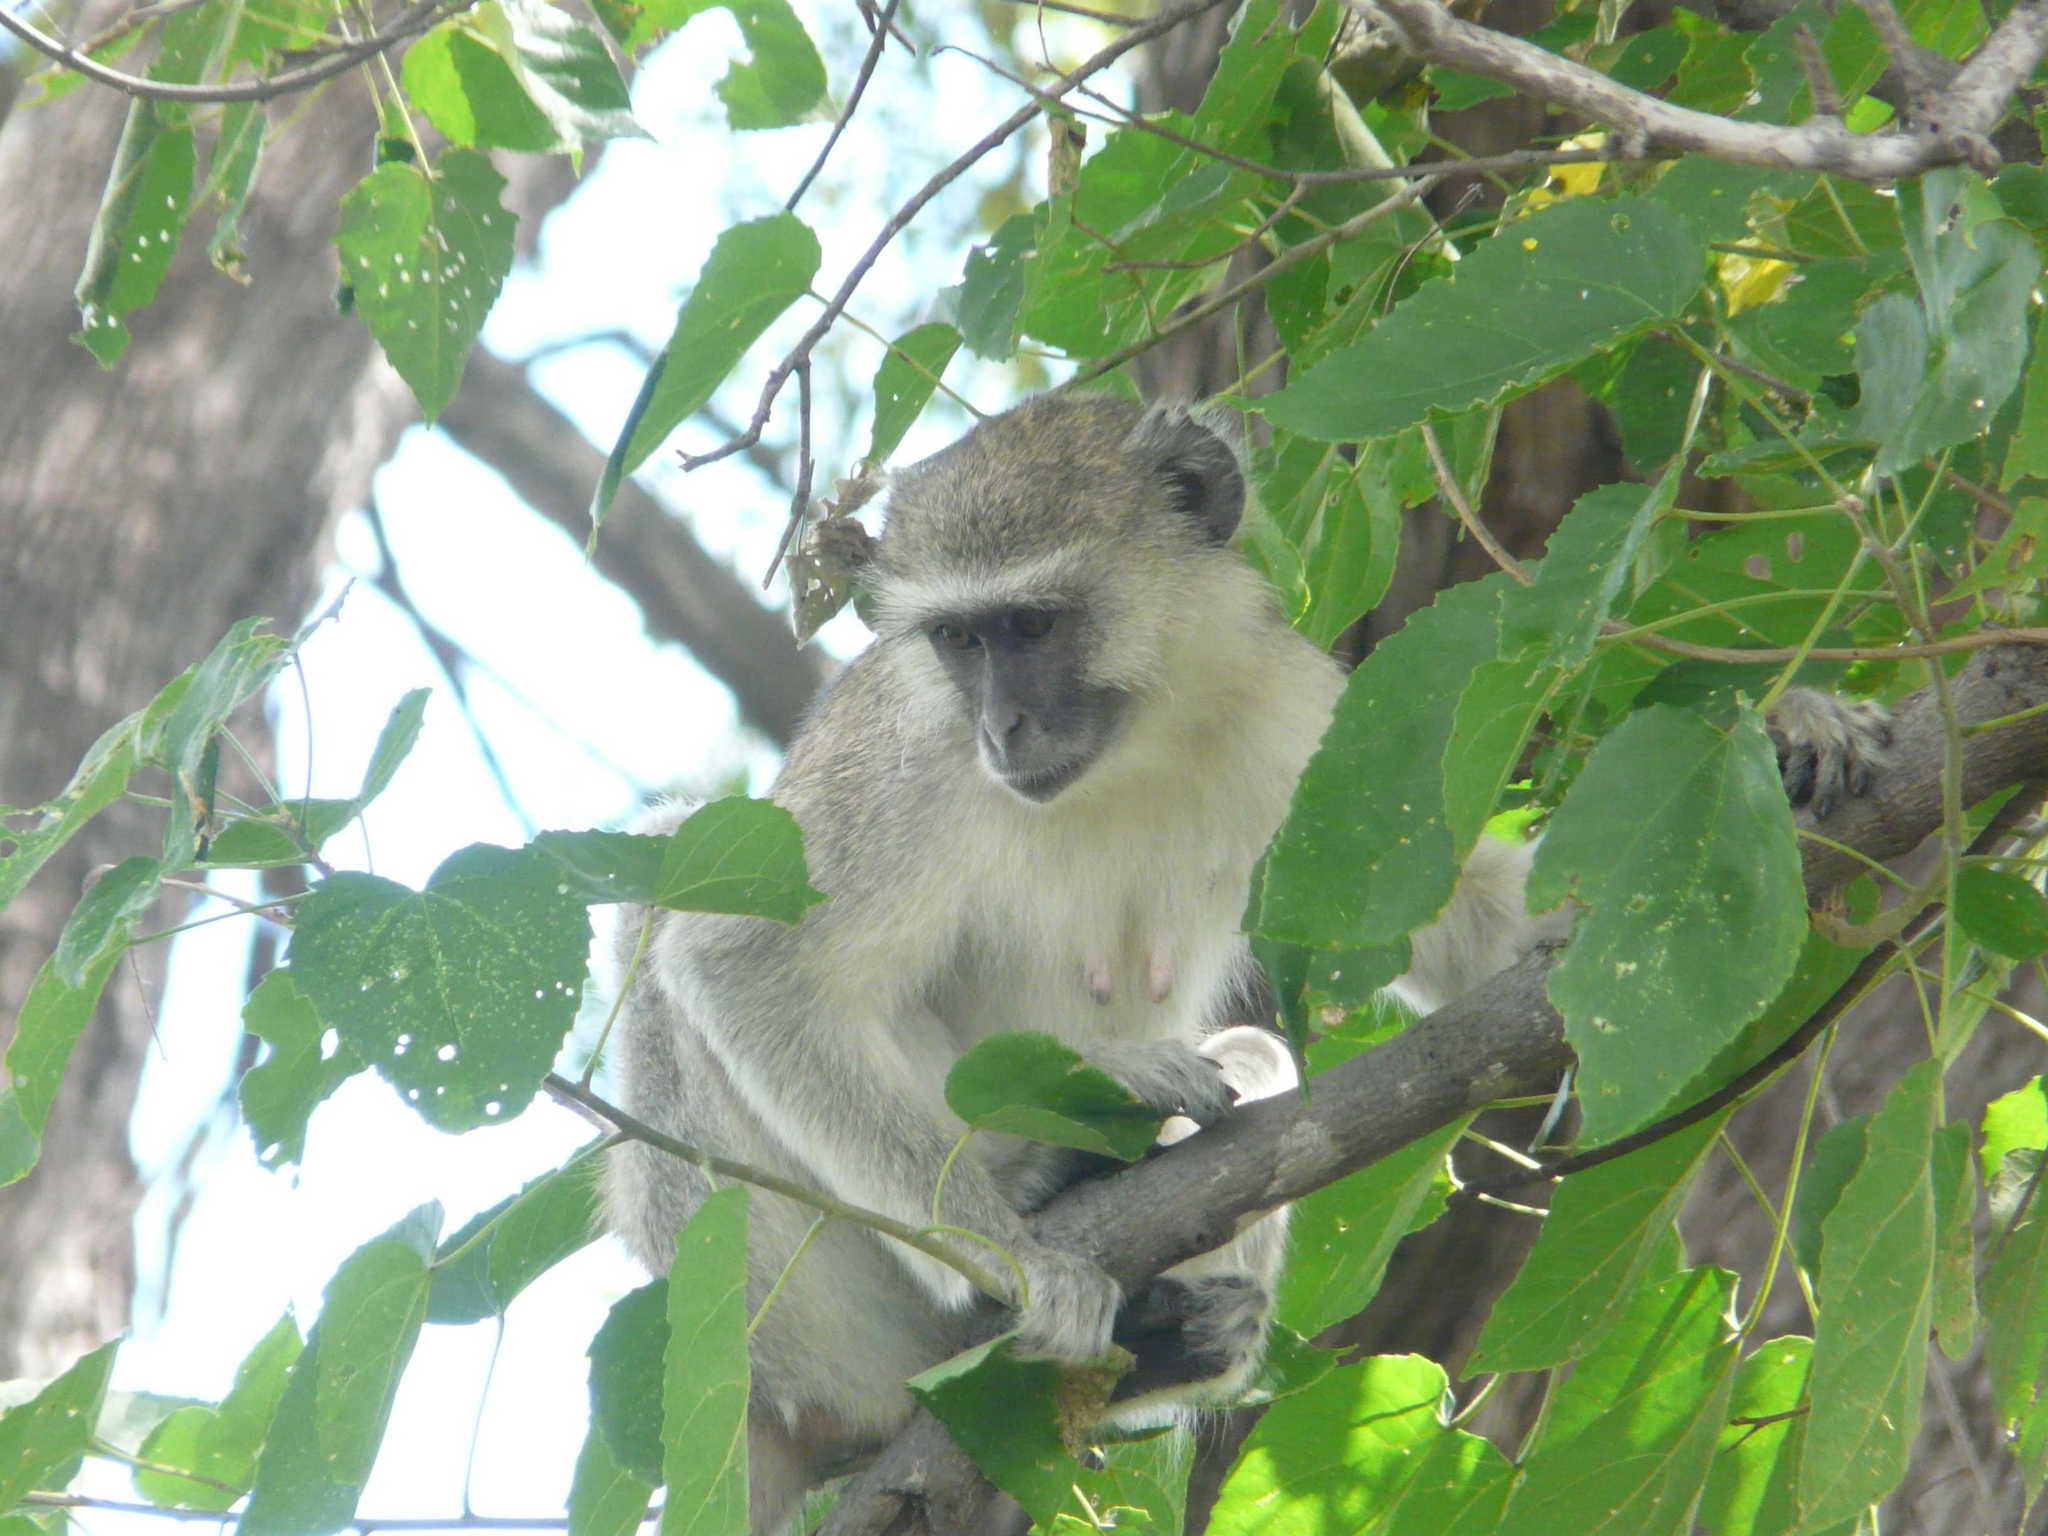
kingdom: Animalia
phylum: Chordata
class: Mammalia
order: Primates
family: Cercopithecidae
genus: Chlorocebus
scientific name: Chlorocebus pygerythrus
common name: Vervet monkey
